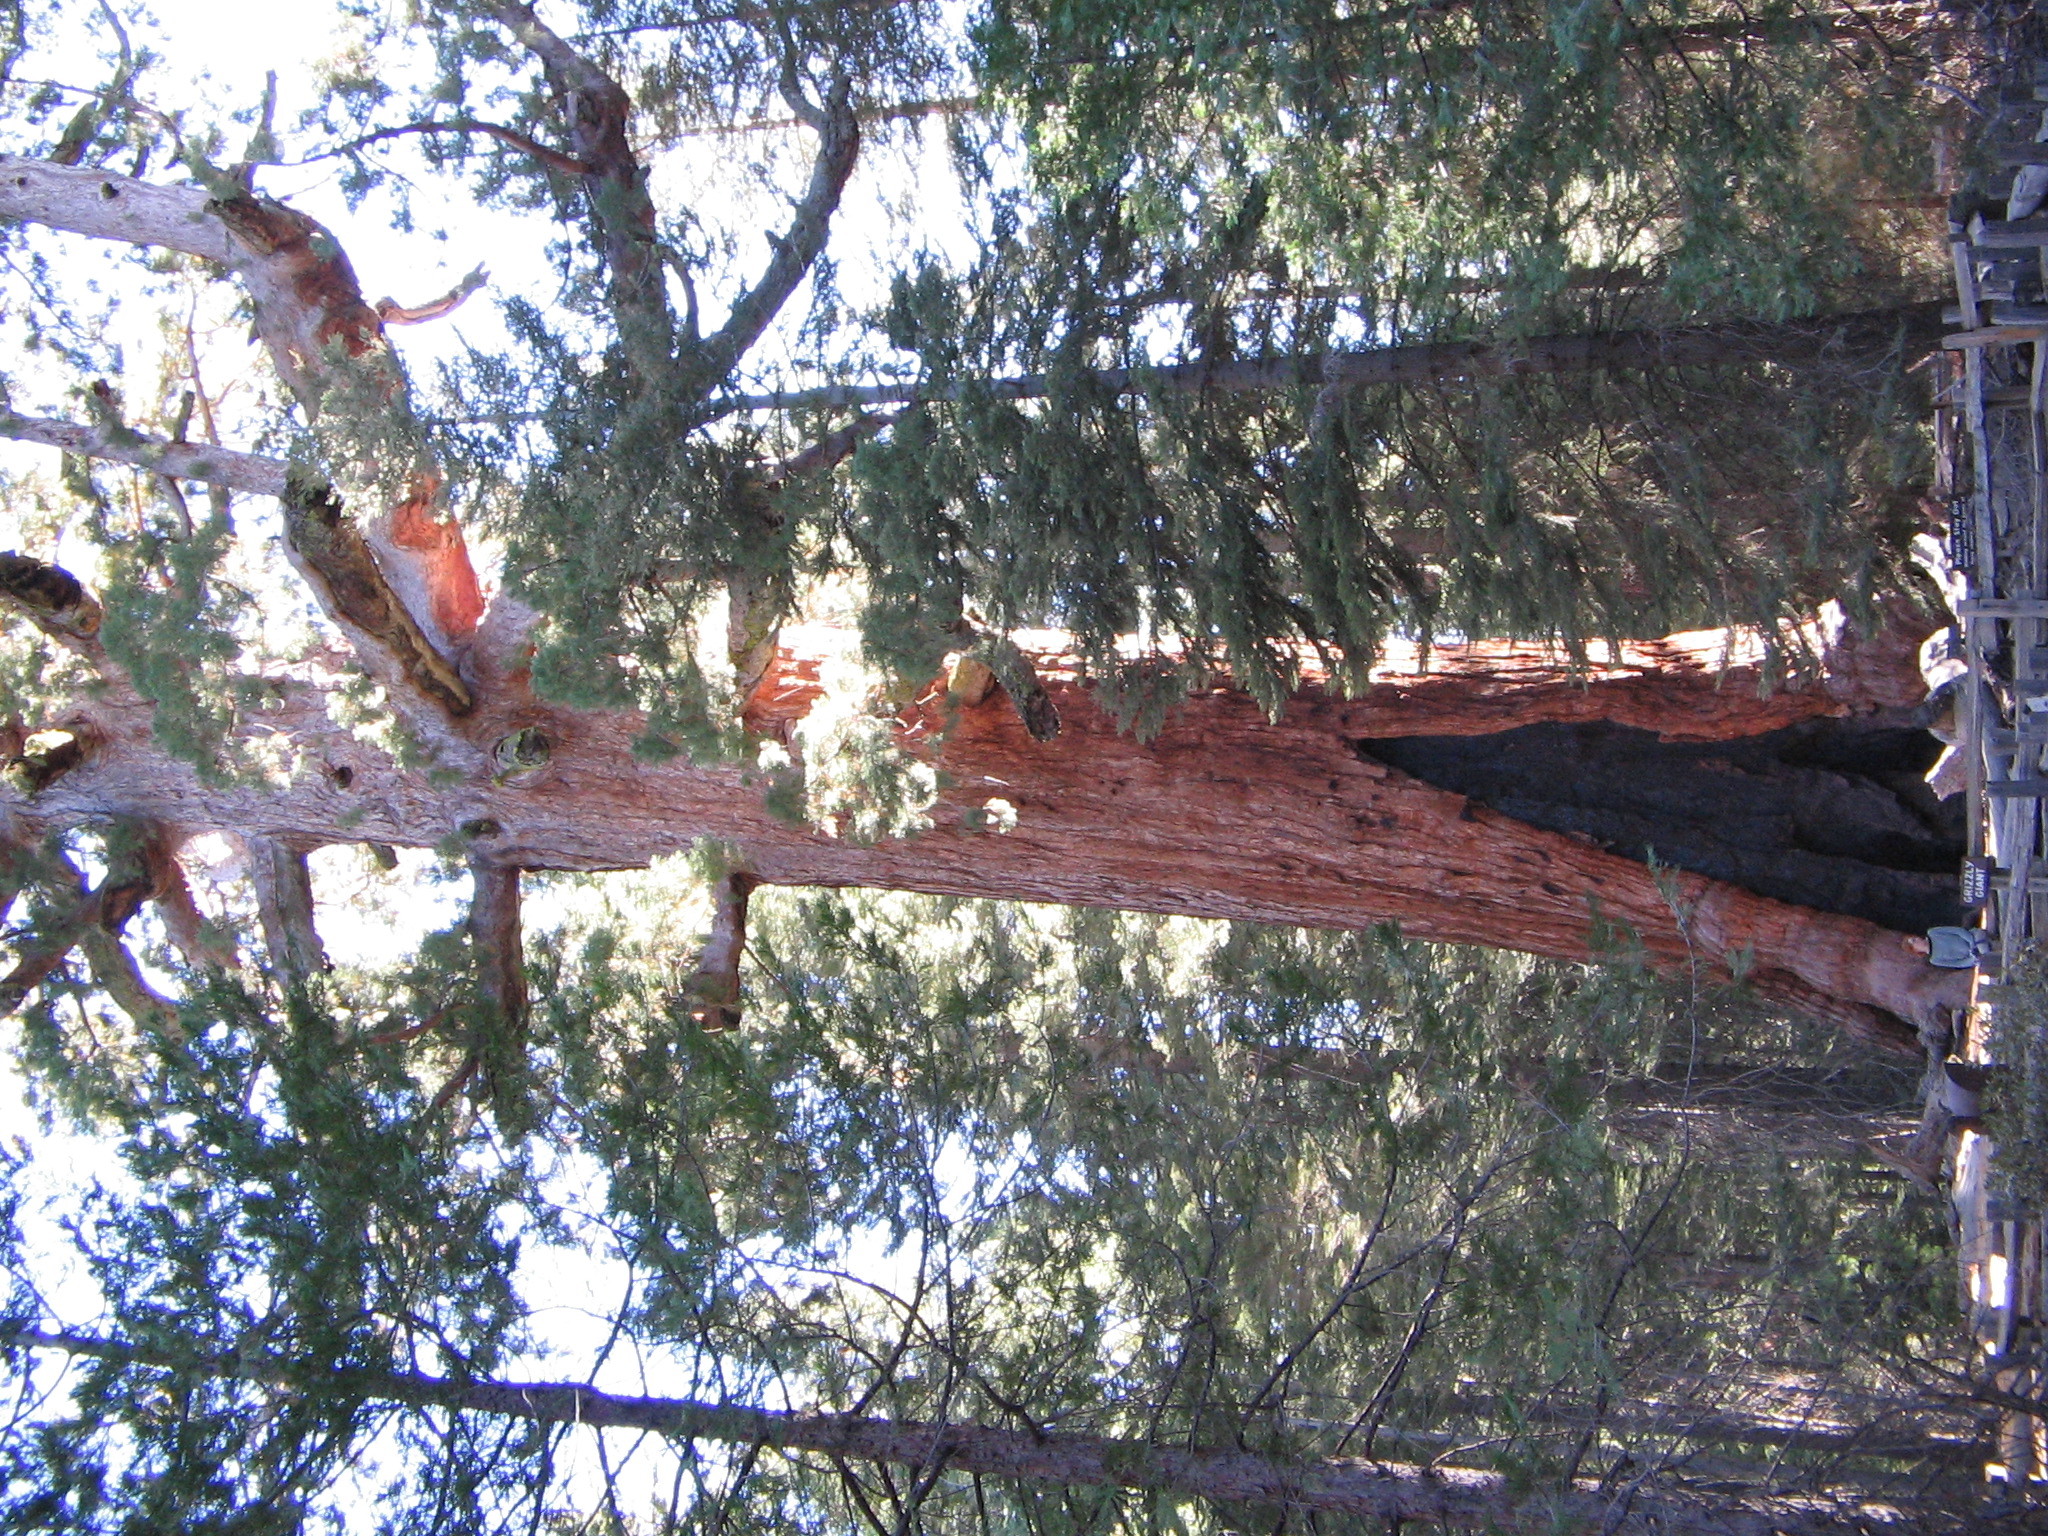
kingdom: Plantae
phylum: Tracheophyta
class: Pinopsida
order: Pinales
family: Cupressaceae
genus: Sequoia
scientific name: Sequoia sempervirens
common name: Coast redwood
